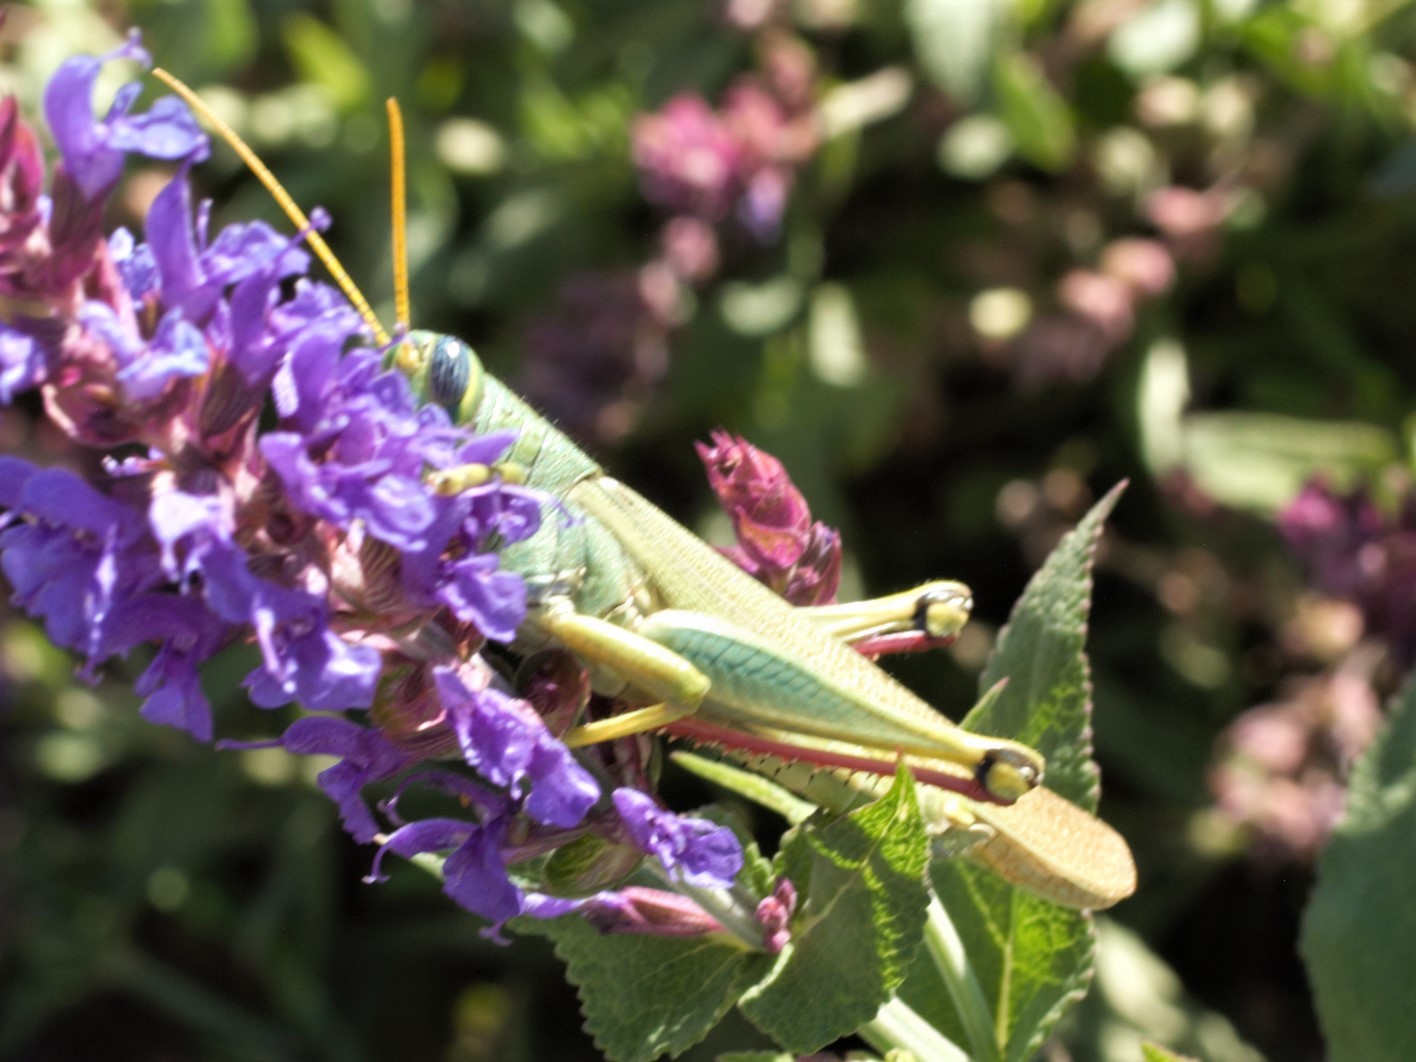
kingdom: Animalia
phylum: Arthropoda
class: Insecta
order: Orthoptera
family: Acrididae
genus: Schistocerca
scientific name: Schistocerca shoshone
